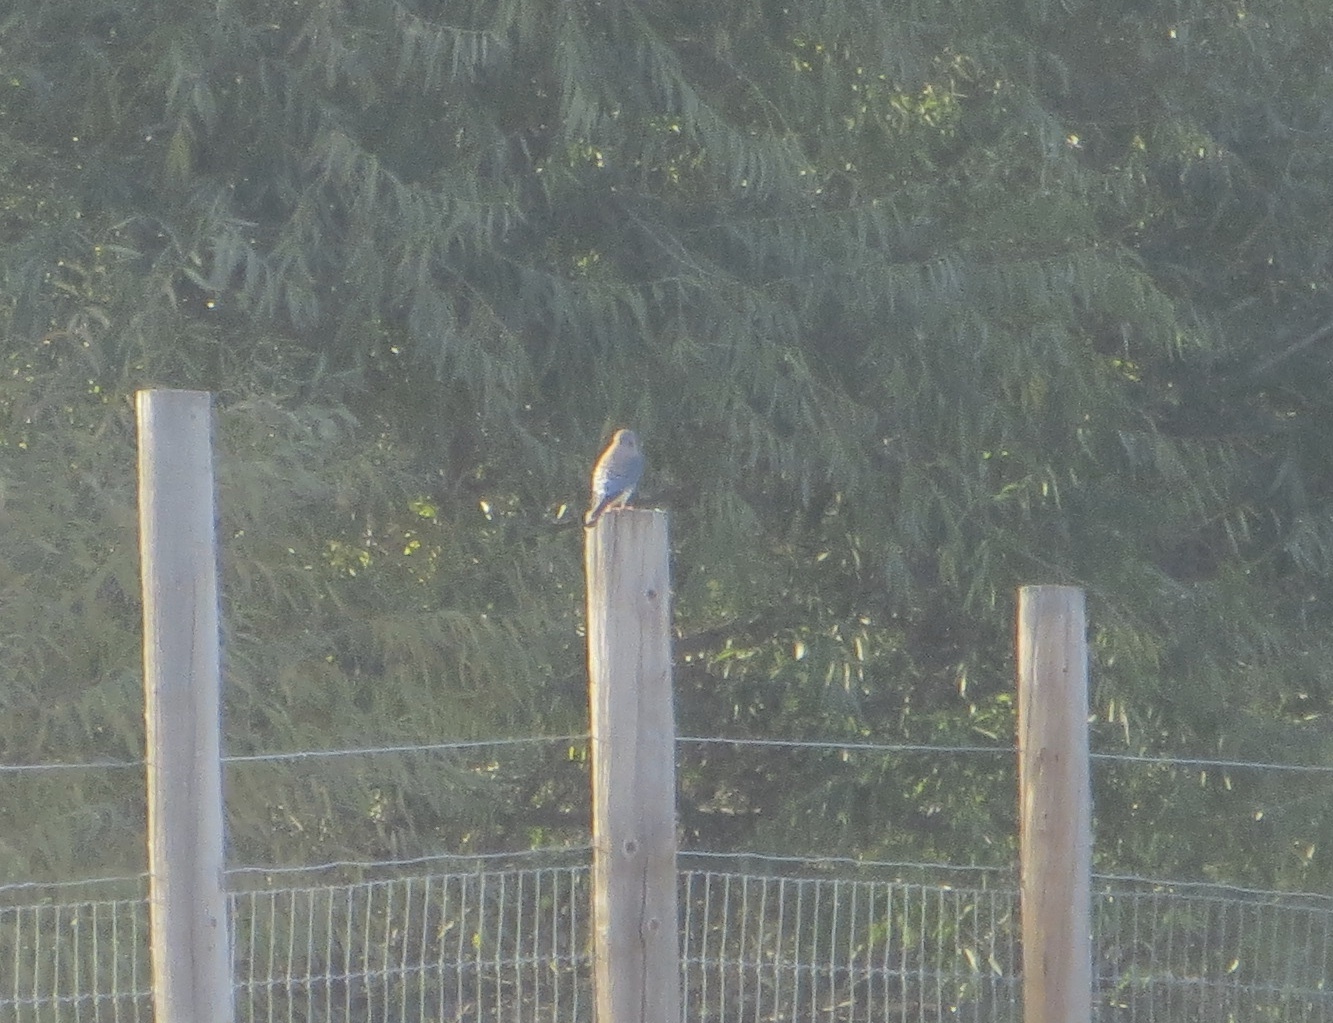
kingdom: Animalia
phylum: Chordata
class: Aves
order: Falconiformes
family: Falconidae
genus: Falco
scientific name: Falco sparverius
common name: American kestrel
